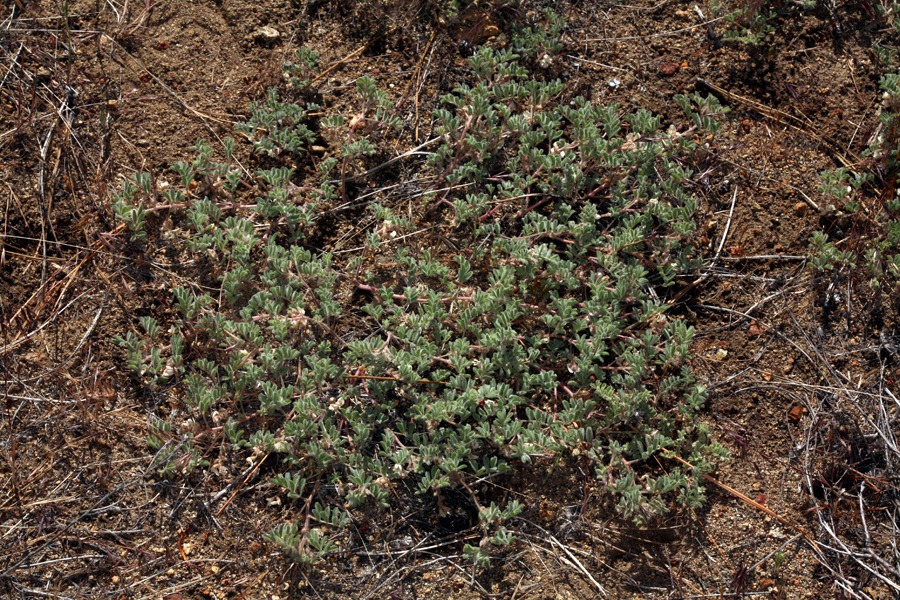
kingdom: Plantae
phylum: Tracheophyta
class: Magnoliopsida
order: Fabales
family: Fabaceae
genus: Astragalus
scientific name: Astragalus pulsiferae
